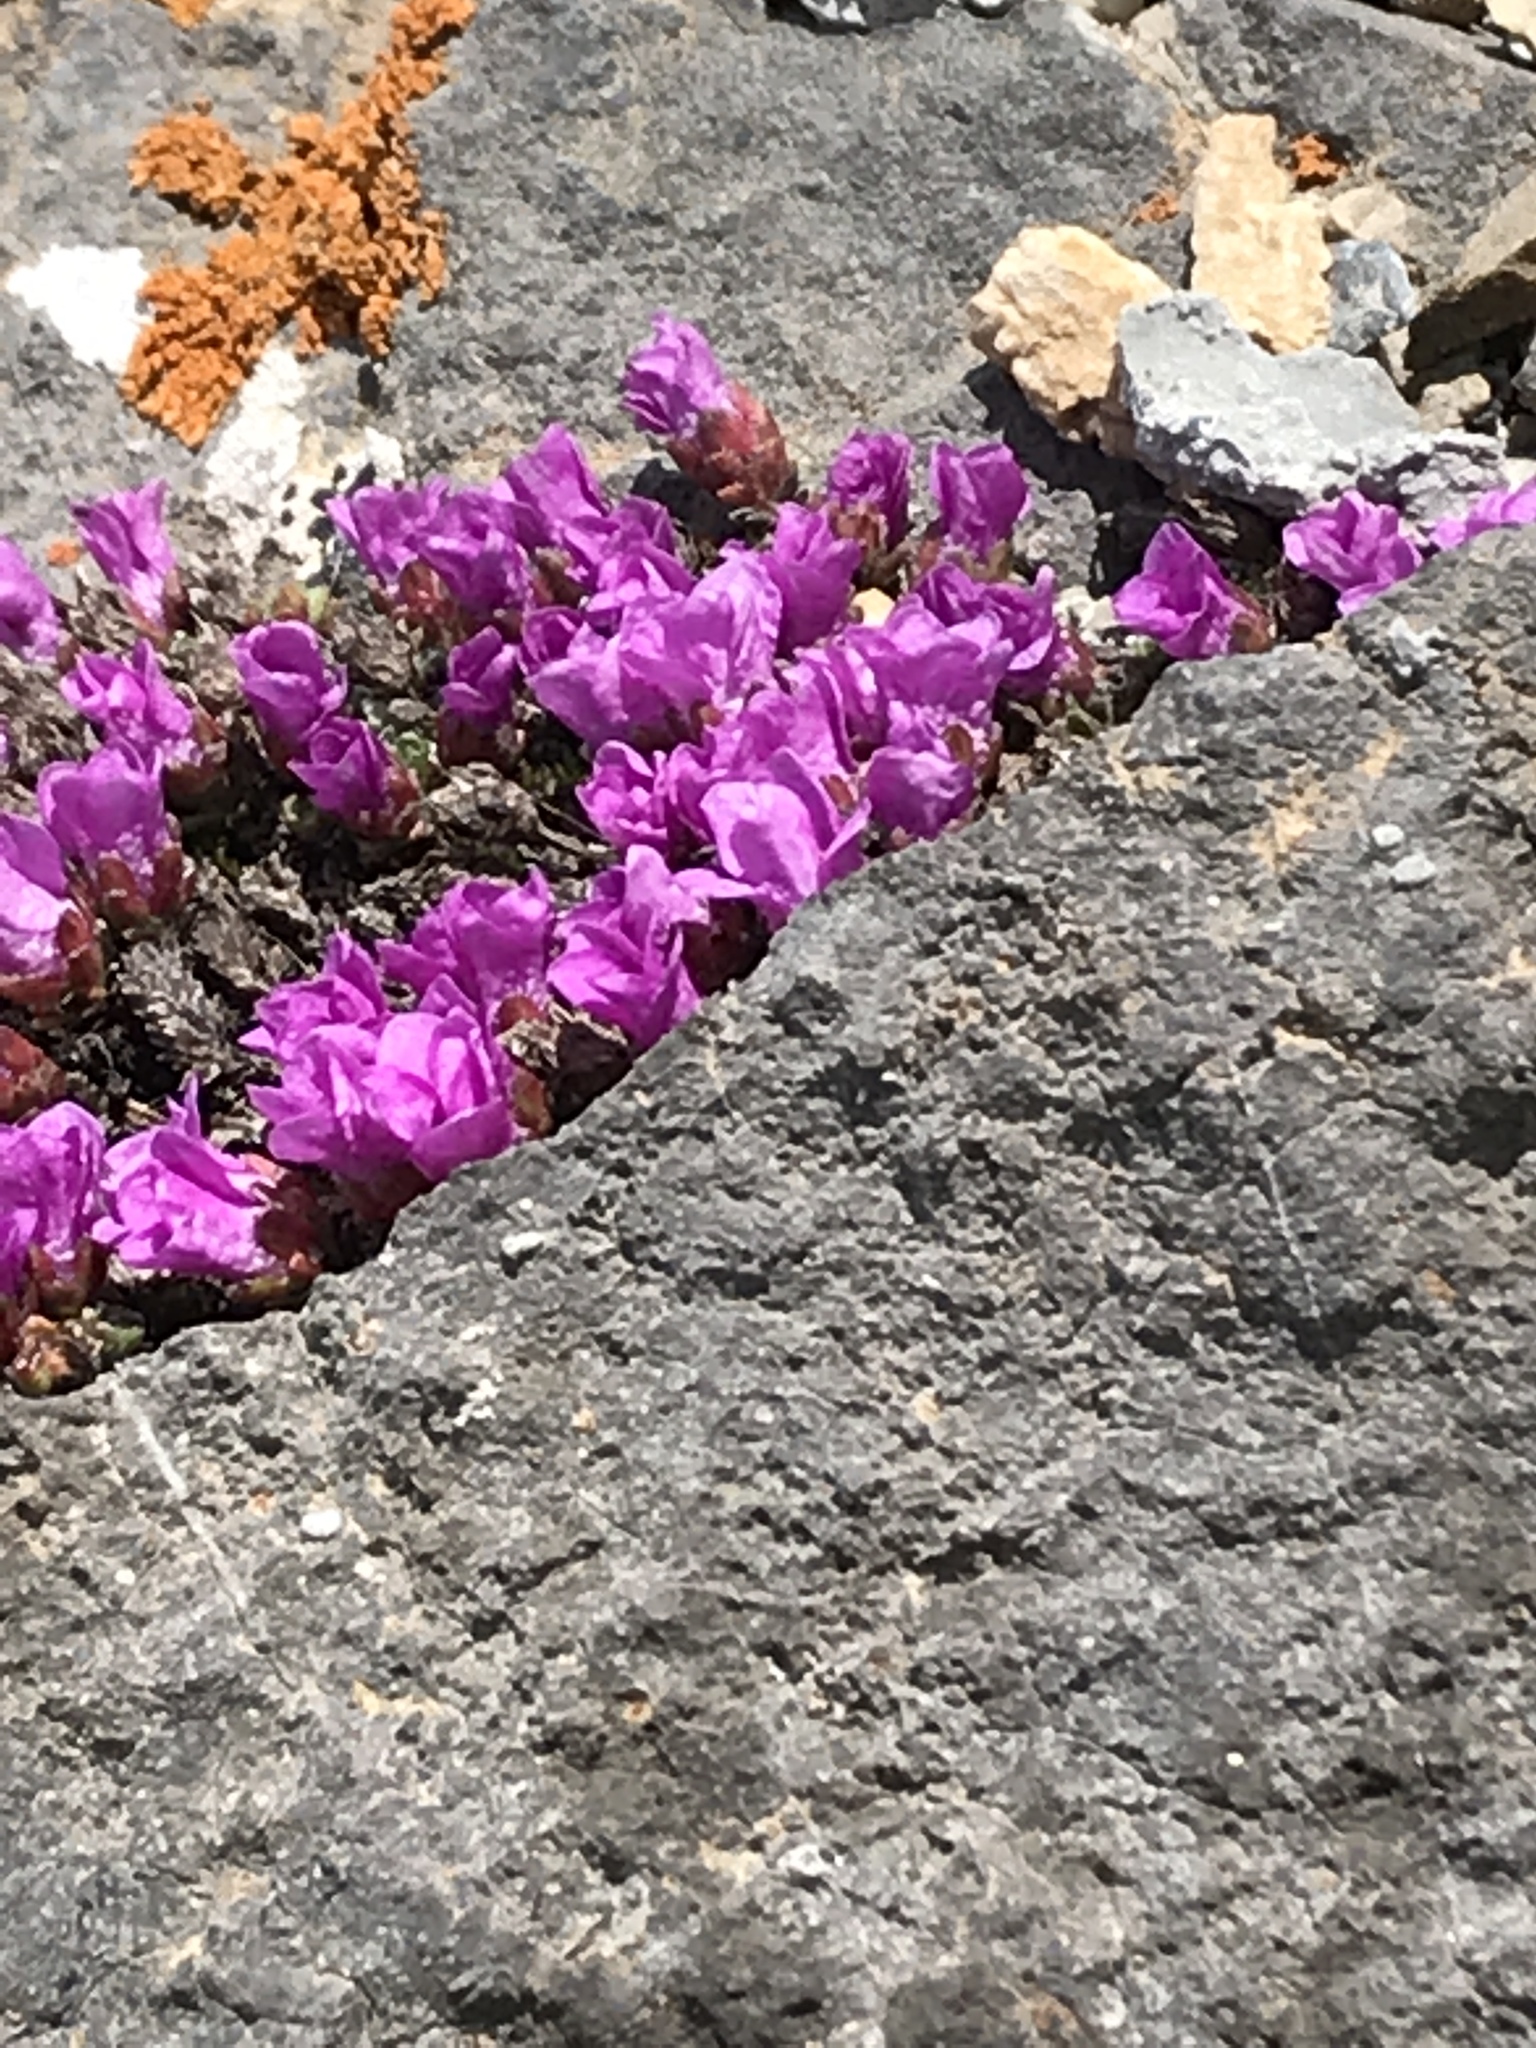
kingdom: Plantae
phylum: Tracheophyta
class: Magnoliopsida
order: Saxifragales
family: Saxifragaceae
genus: Saxifraga
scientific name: Saxifraga oppositifolia
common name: Purple saxifrage
